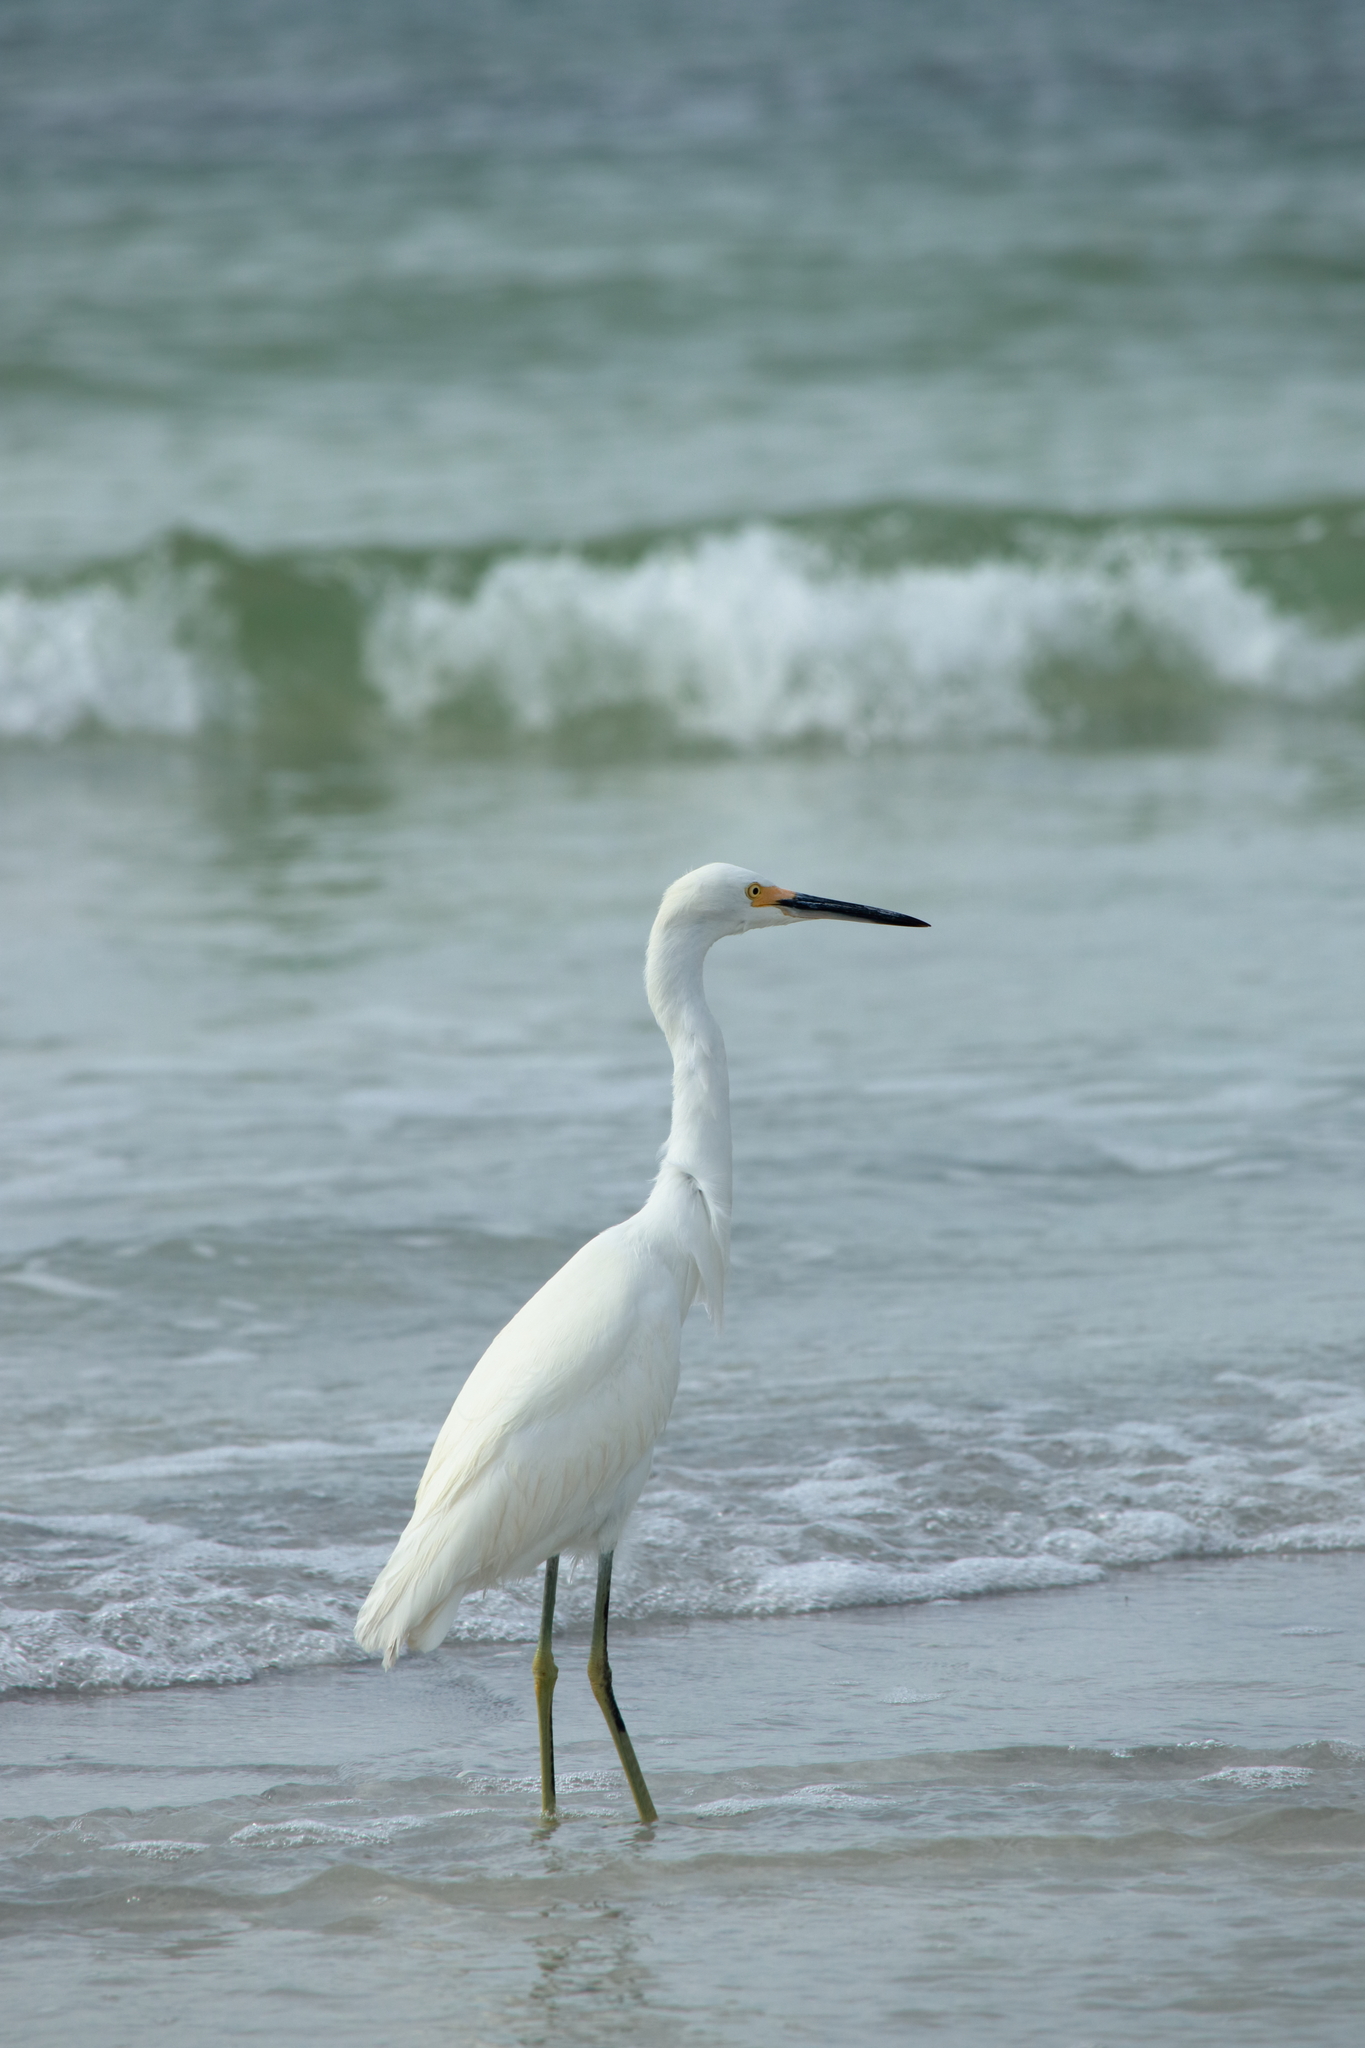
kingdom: Animalia
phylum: Chordata
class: Aves
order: Pelecaniformes
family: Ardeidae
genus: Egretta
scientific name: Egretta thula
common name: Snowy egret
